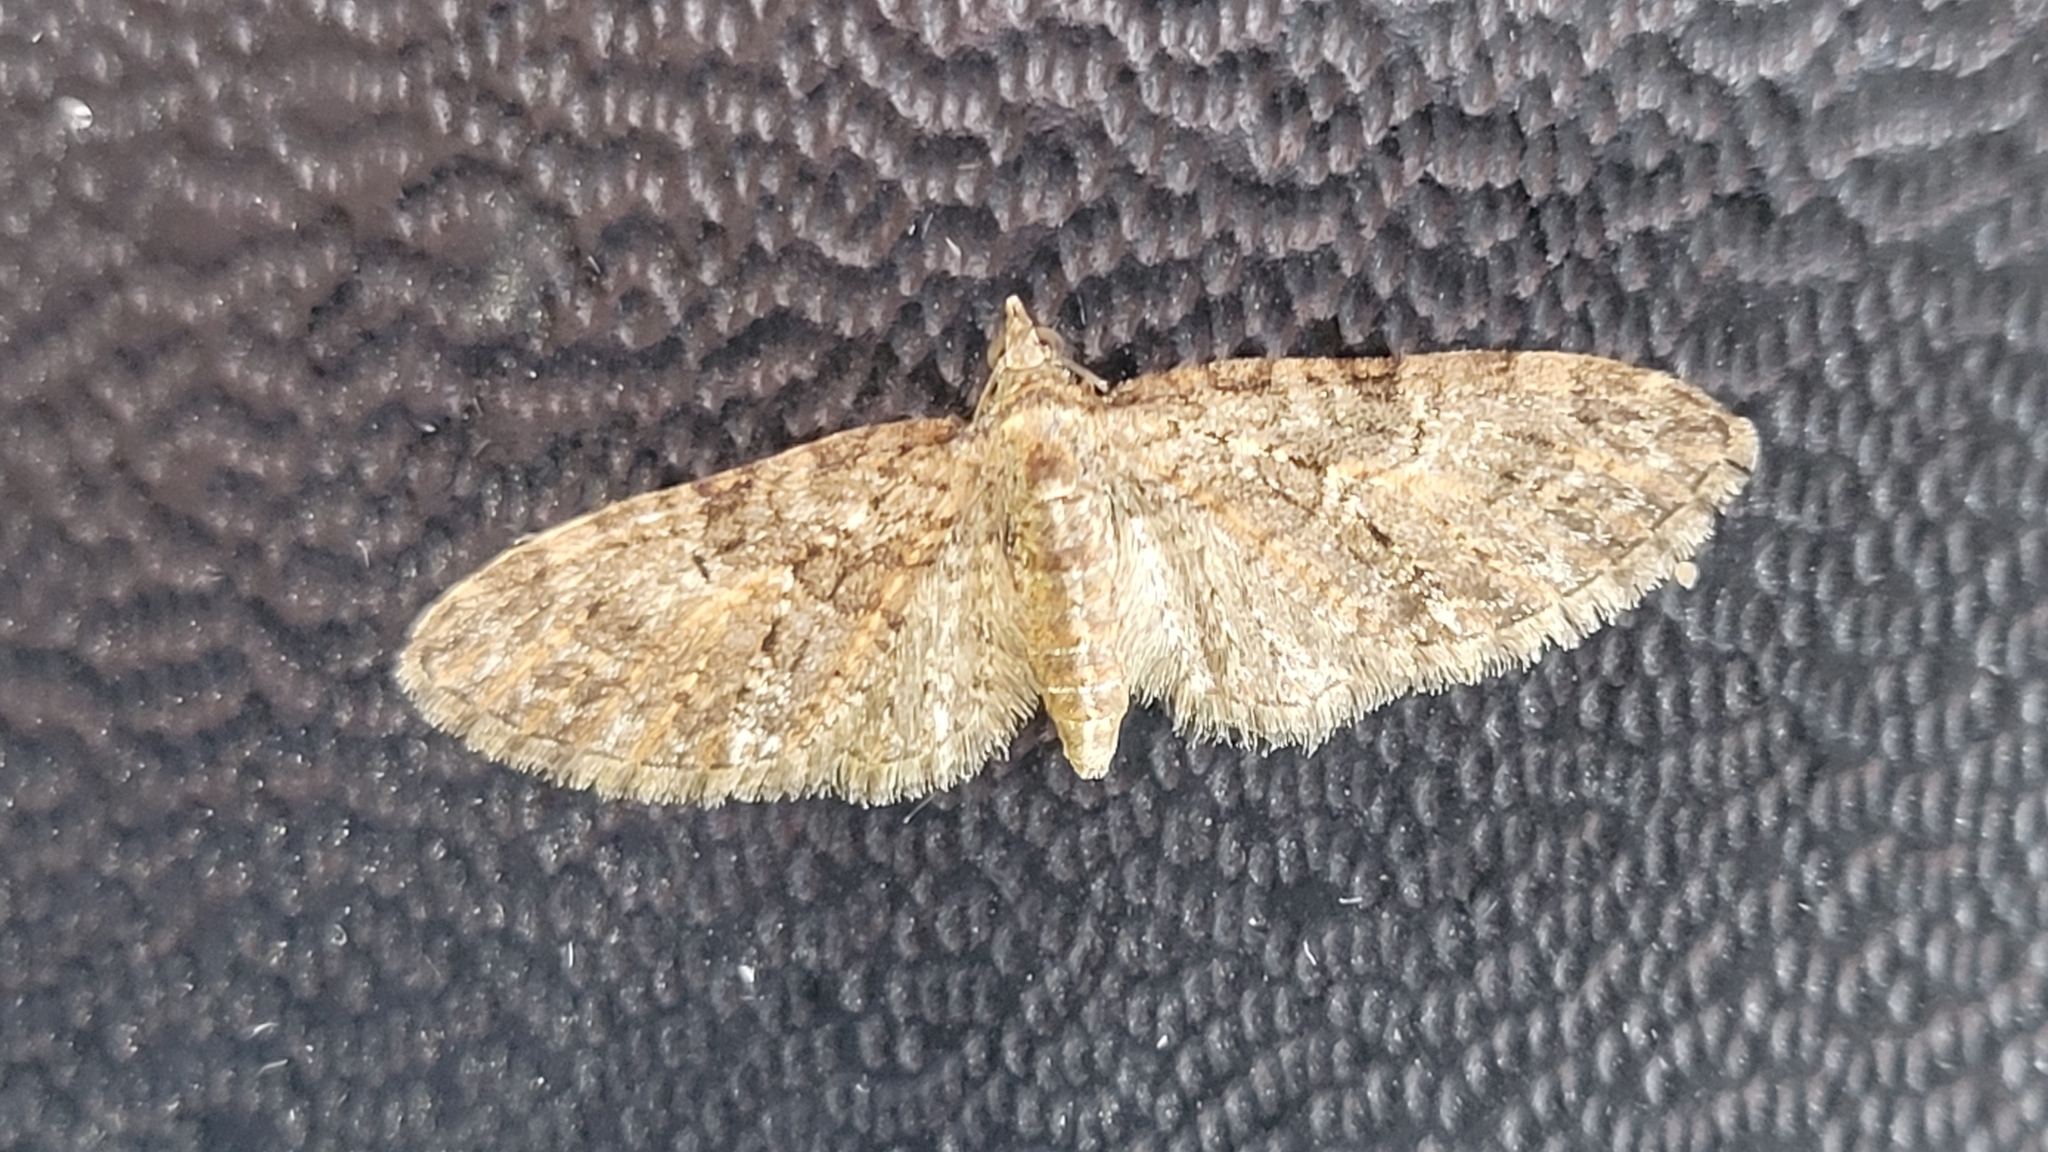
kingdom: Animalia
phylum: Arthropoda
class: Insecta
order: Lepidoptera
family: Geometridae
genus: Eupithecia
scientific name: Eupithecia abbreviata
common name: Brindled pug
